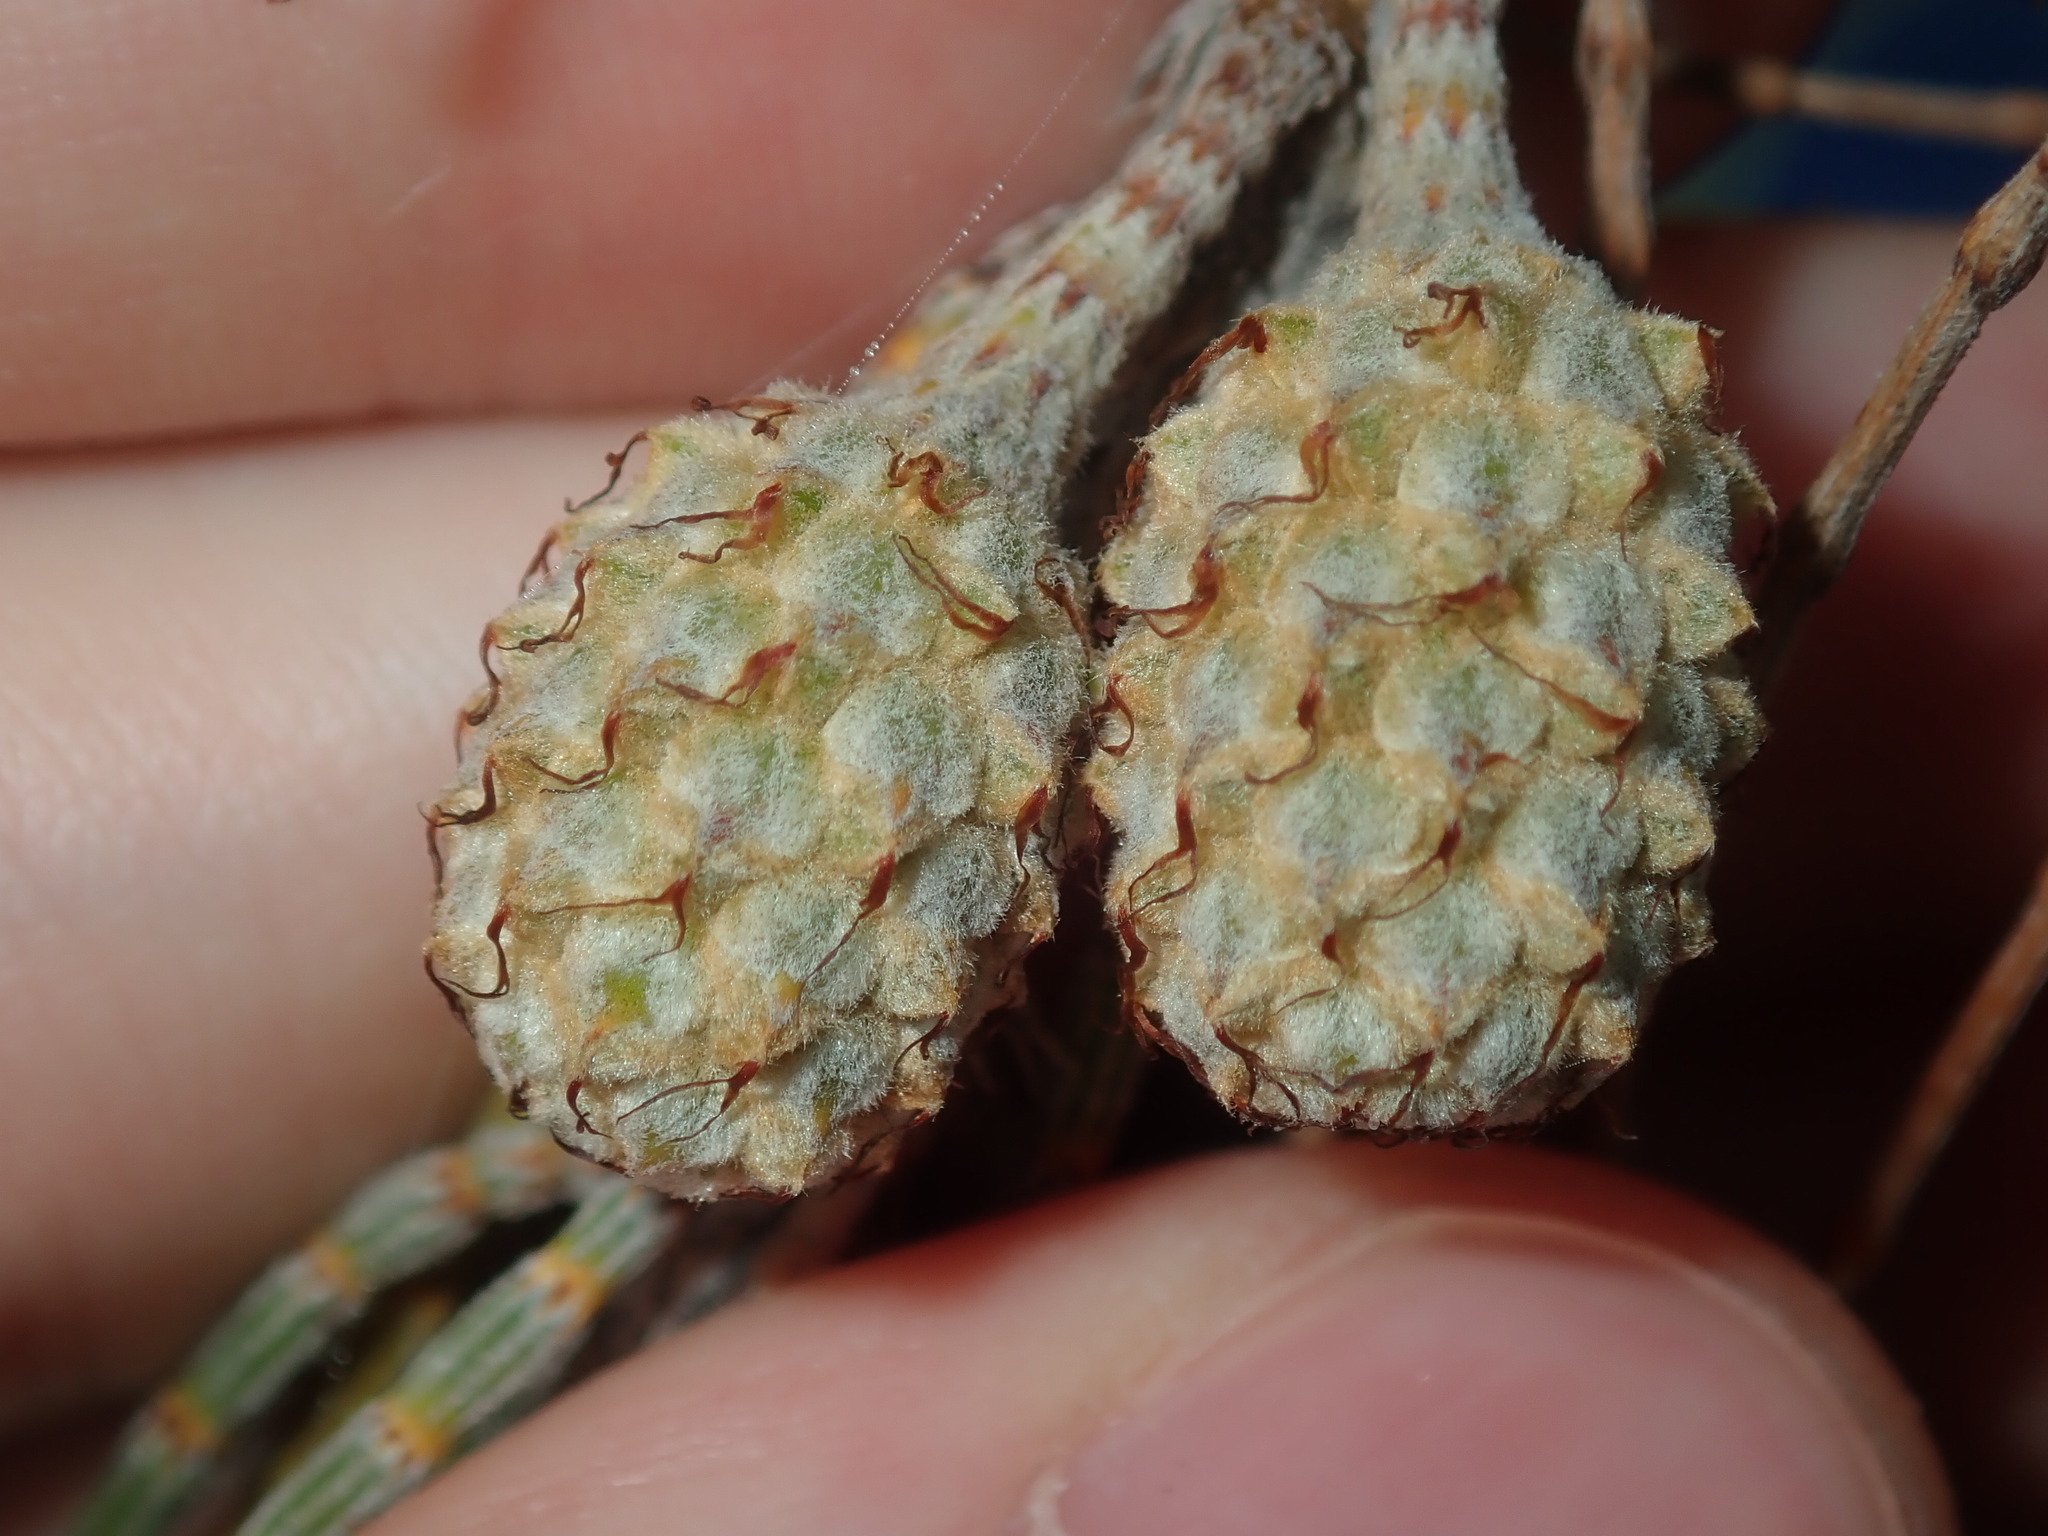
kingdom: Plantae
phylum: Tracheophyta
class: Magnoliopsida
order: Fagales
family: Casuarinaceae
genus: Casuarina
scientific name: Casuarina equisetifolia
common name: Beach sheoak
